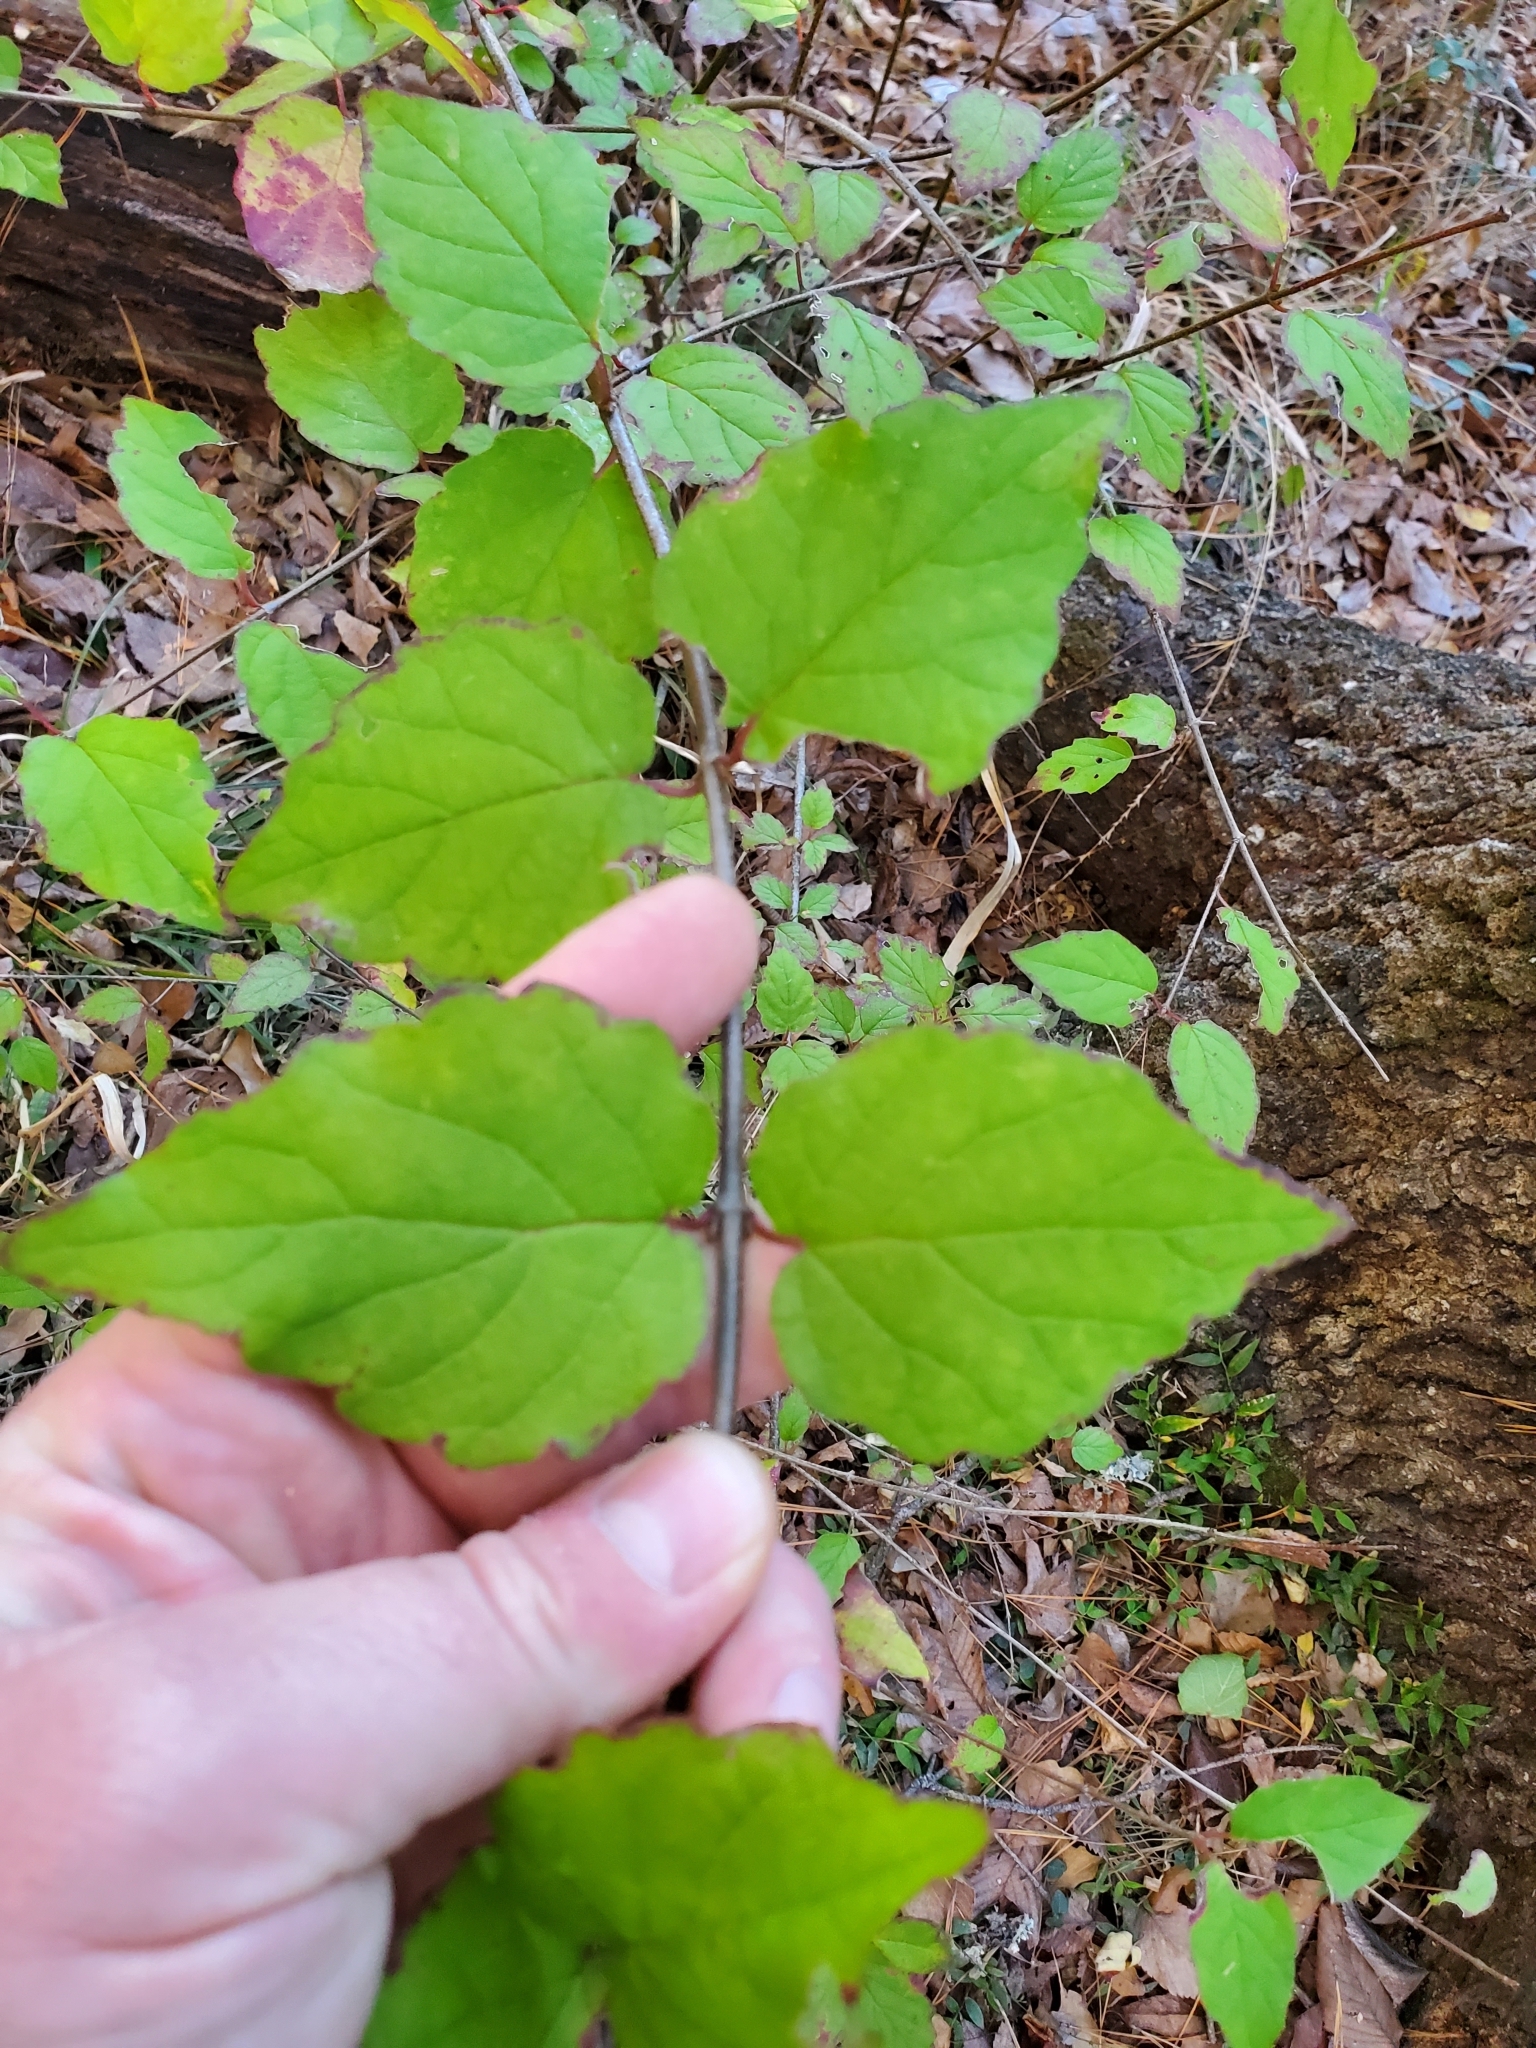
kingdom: Plantae
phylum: Tracheophyta
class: Magnoliopsida
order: Dipsacales
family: Viburnaceae
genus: Viburnum
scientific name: Viburnum scabrellum
